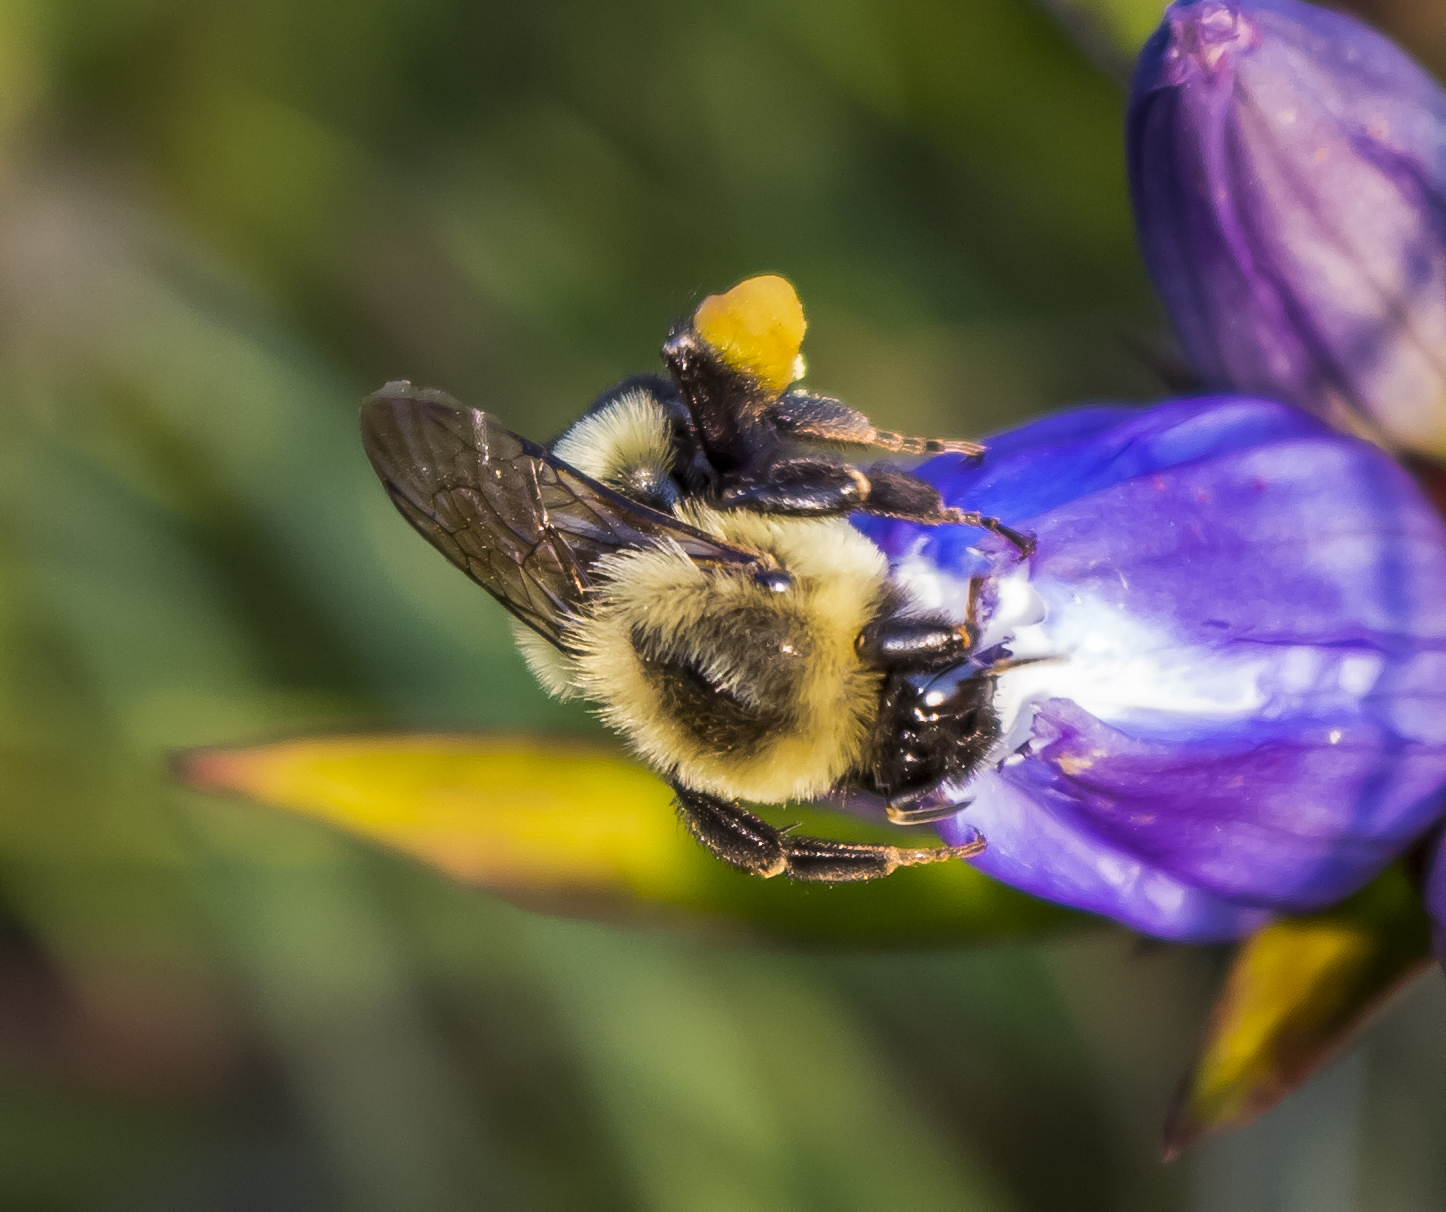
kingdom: Animalia
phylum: Arthropoda
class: Insecta
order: Hymenoptera
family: Apidae
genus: Bombus
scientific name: Bombus impatiens
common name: Common eastern bumble bee
